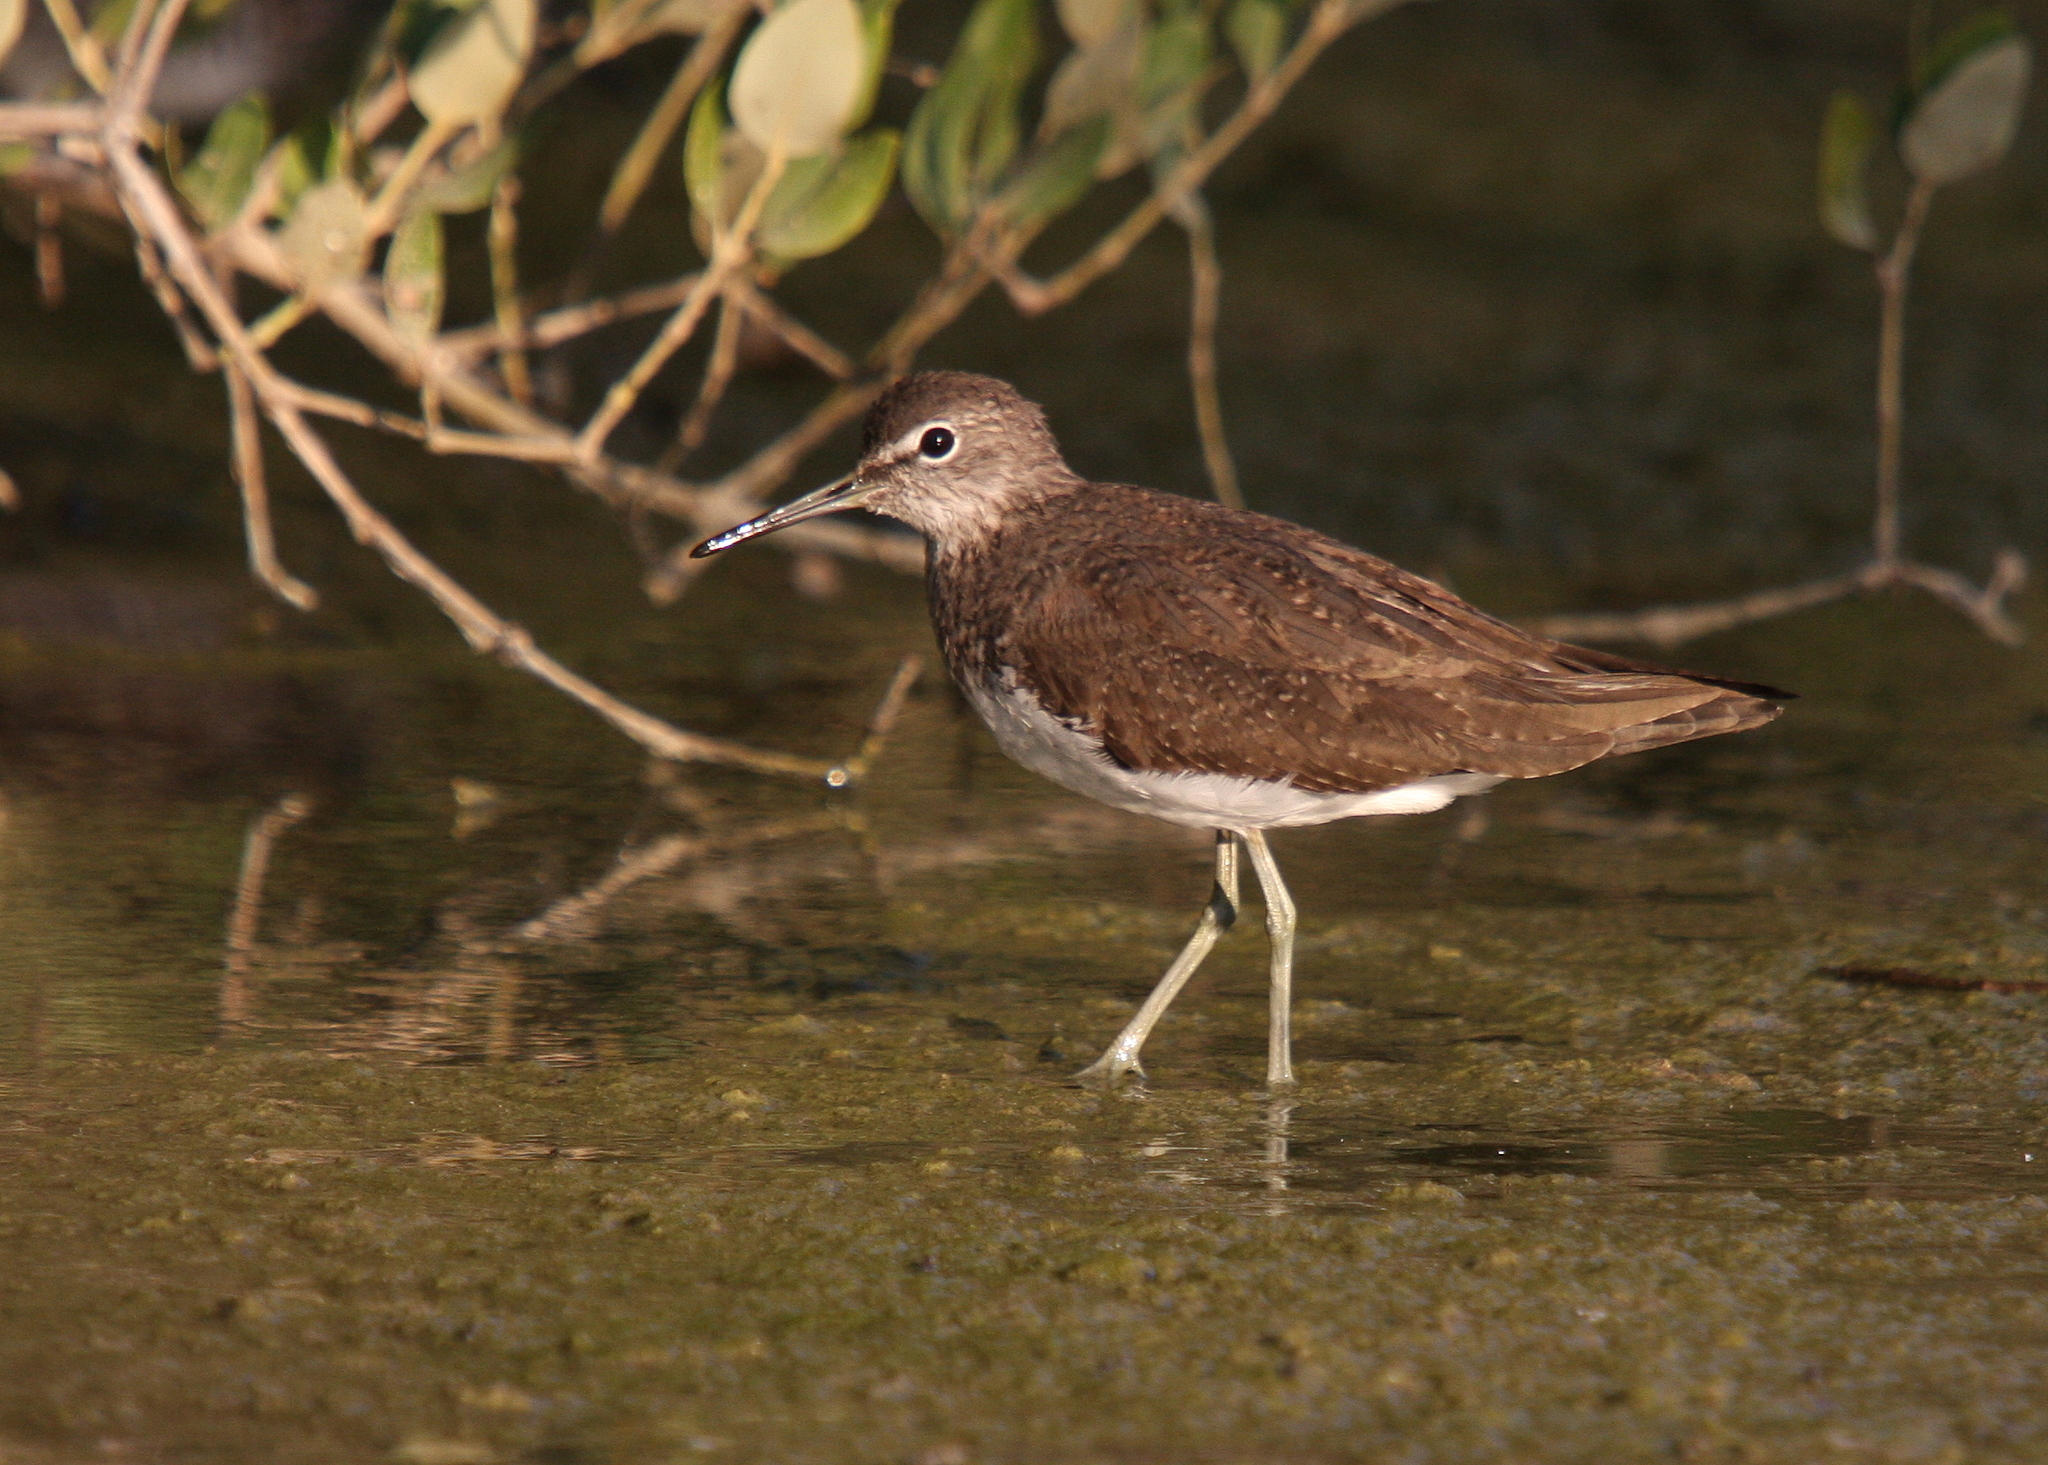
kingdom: Animalia
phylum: Chordata
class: Aves
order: Charadriiformes
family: Scolopacidae
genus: Tringa
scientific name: Tringa ochropus
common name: Green sandpiper
